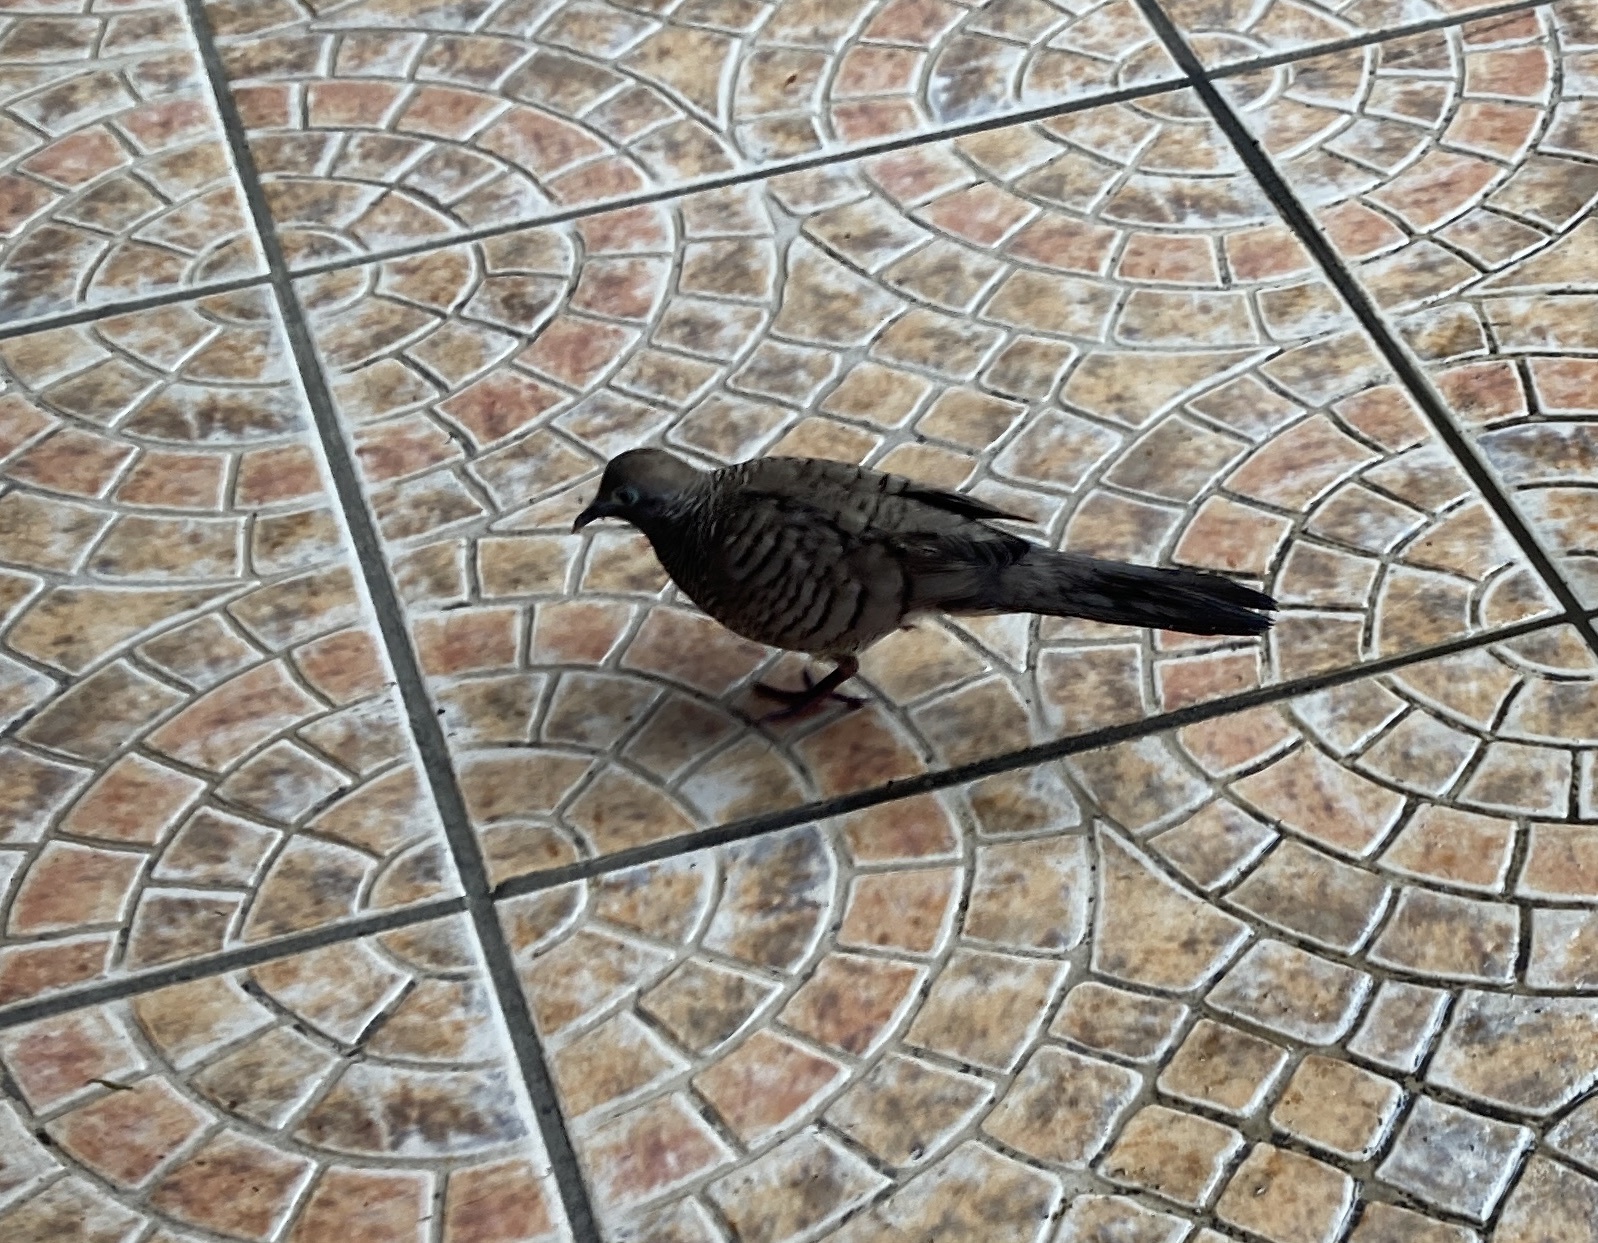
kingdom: Animalia
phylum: Chordata
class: Aves
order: Columbiformes
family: Columbidae
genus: Geopelia
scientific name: Geopelia striata
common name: Zebra dove
